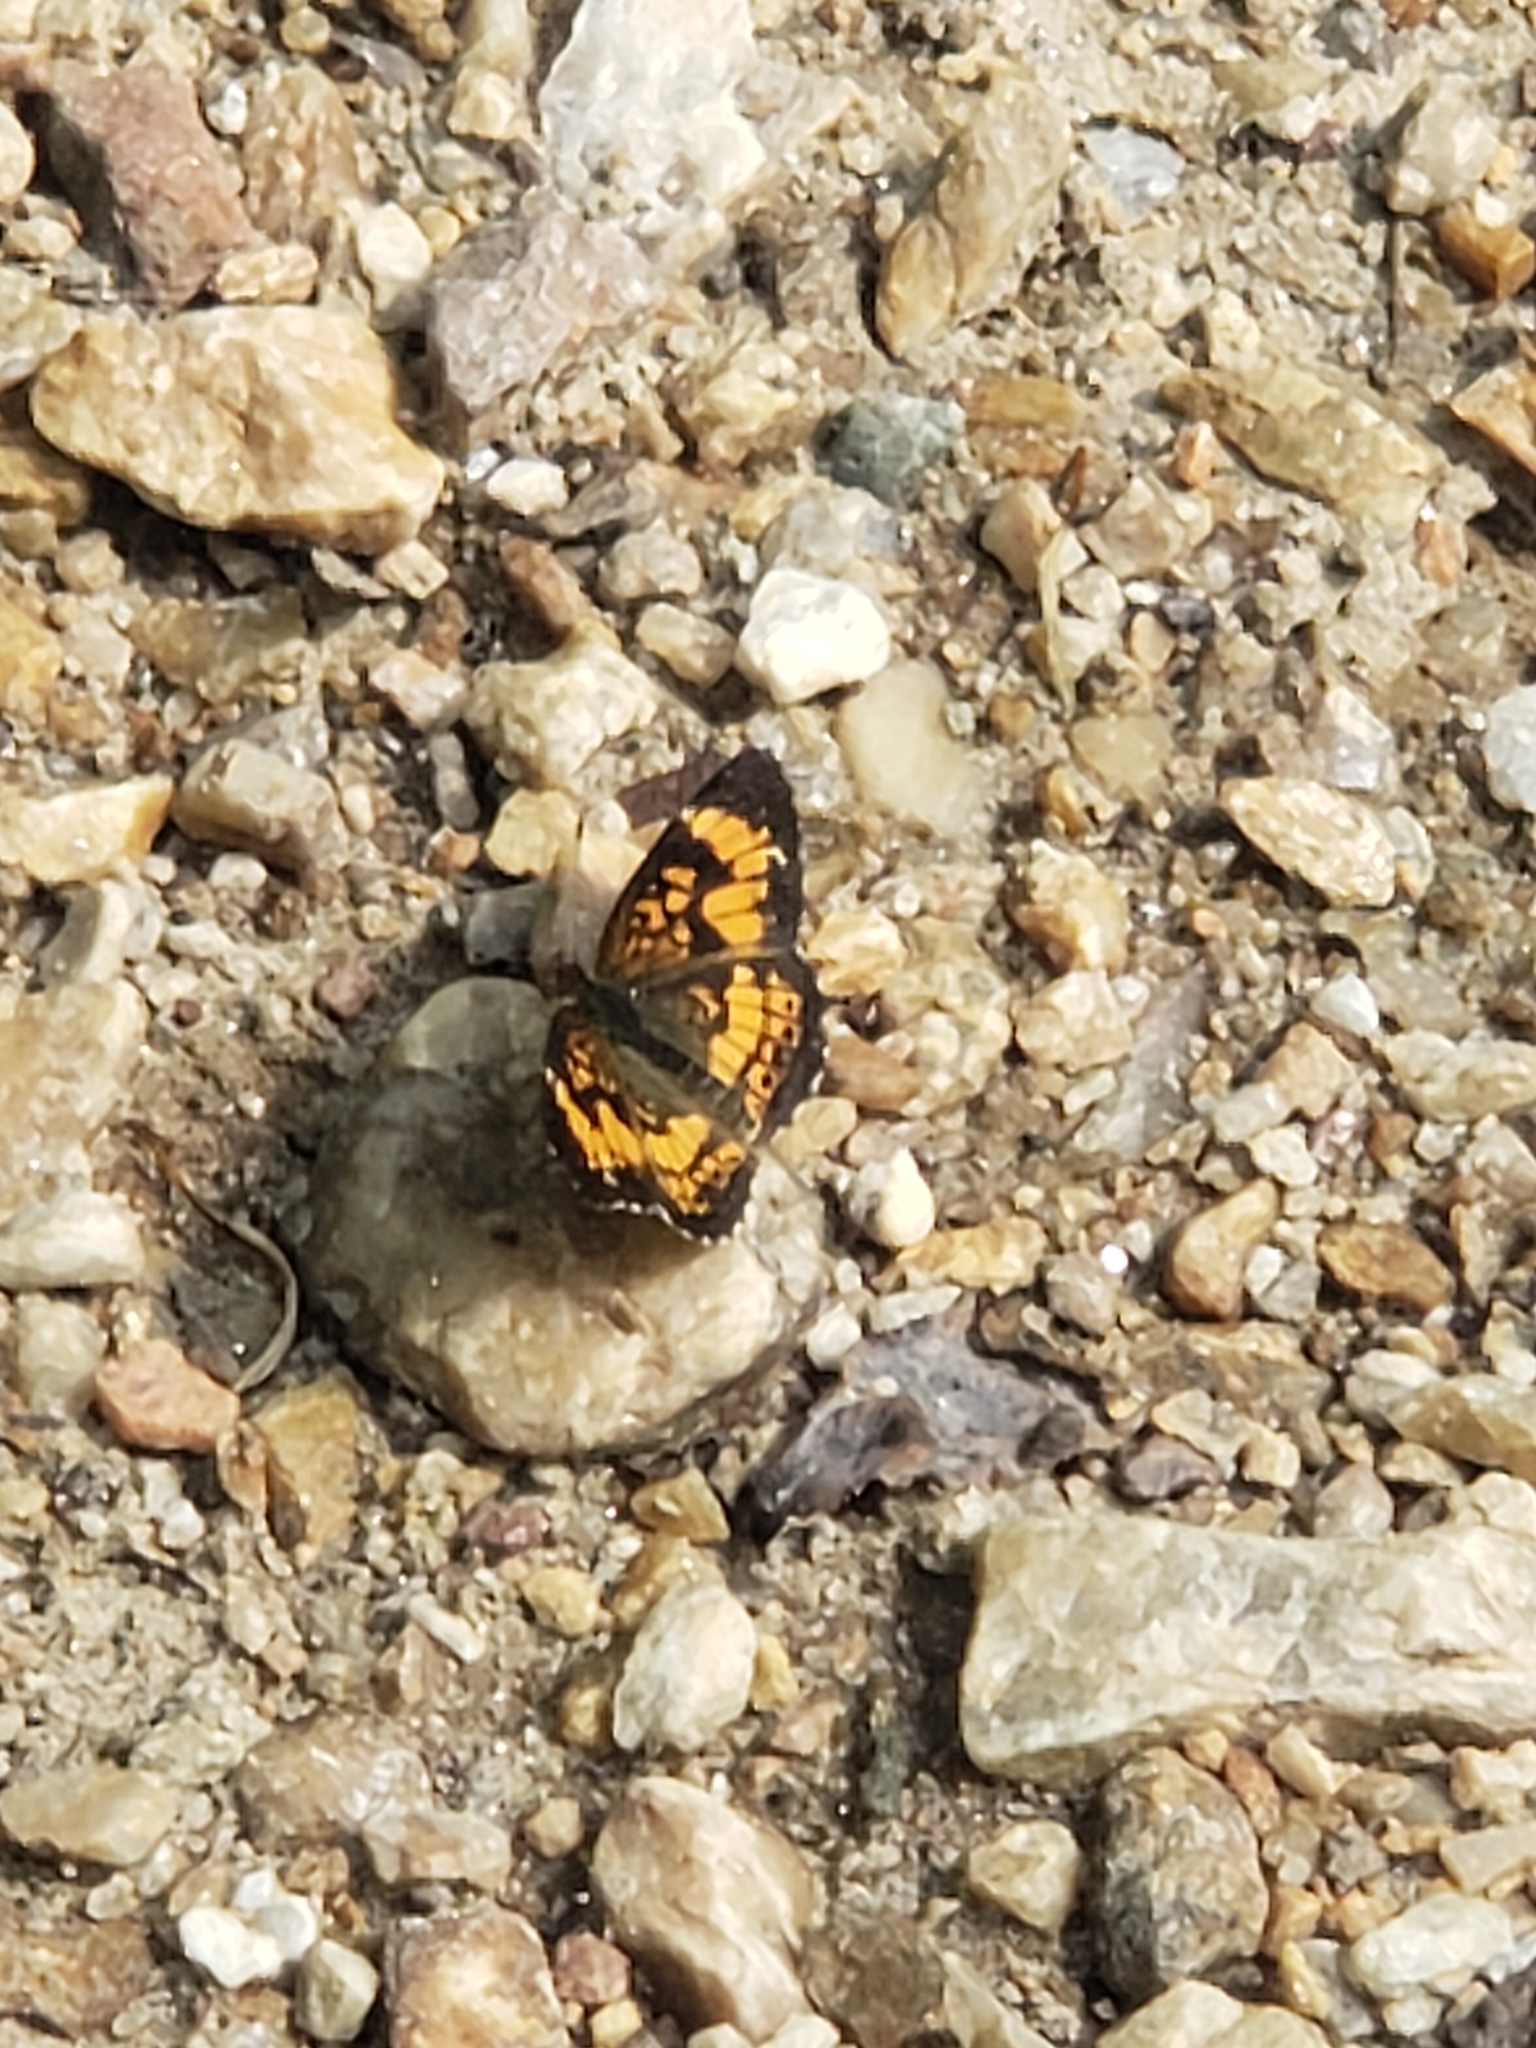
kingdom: Animalia
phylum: Arthropoda
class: Insecta
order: Lepidoptera
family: Nymphalidae
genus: Chlosyne
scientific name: Chlosyne nycteis
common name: Silvery checkerspot
